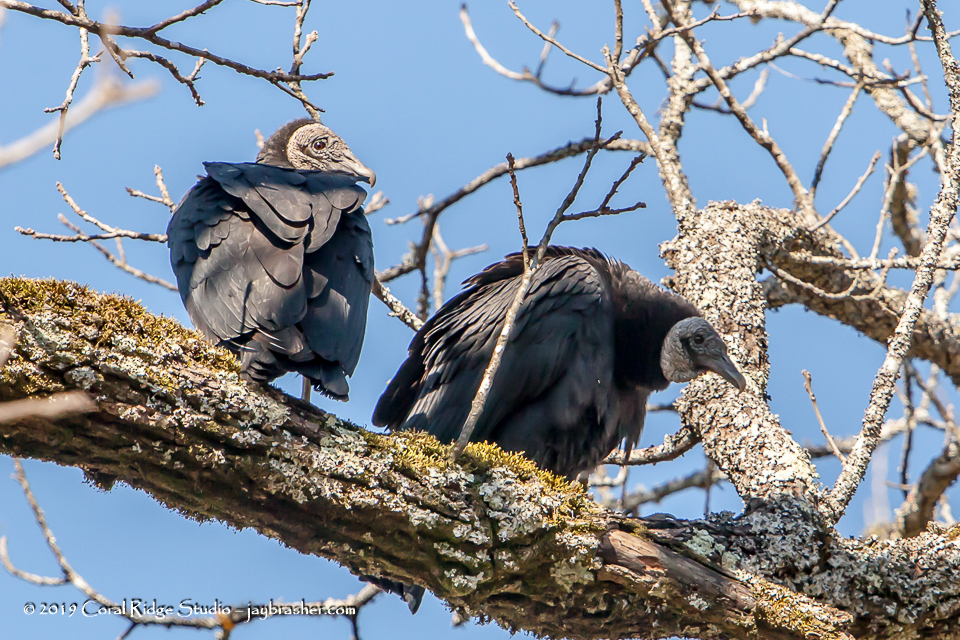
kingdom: Animalia
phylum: Chordata
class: Aves
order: Accipitriformes
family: Cathartidae
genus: Coragyps
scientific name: Coragyps atratus
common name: Black vulture
